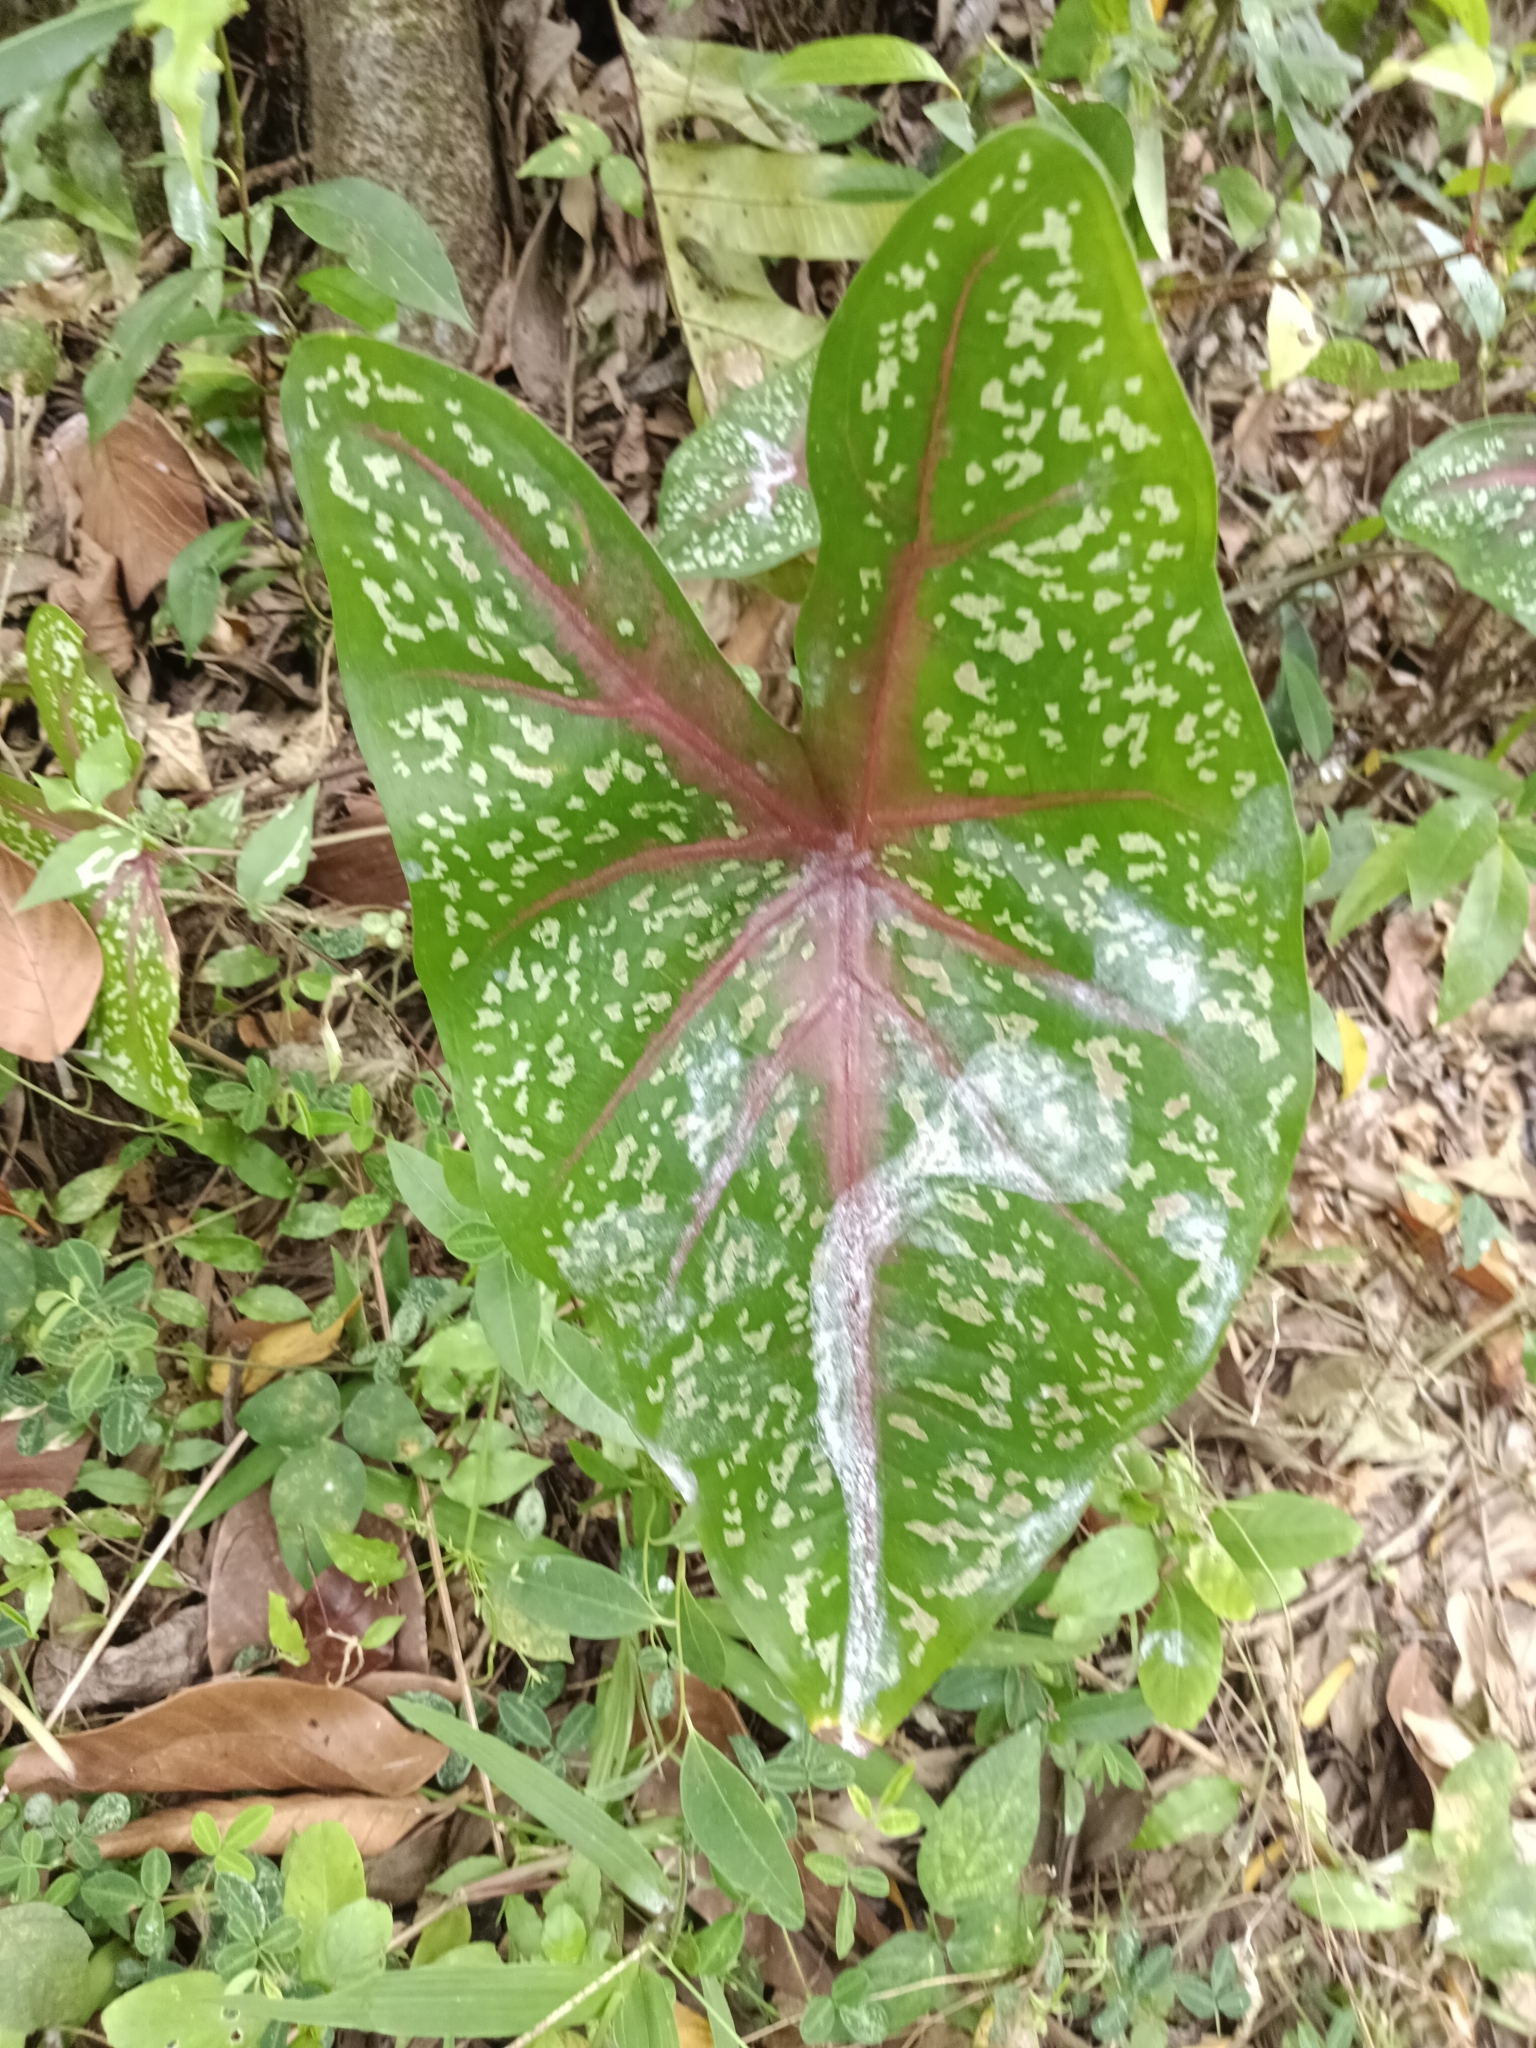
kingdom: Plantae
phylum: Tracheophyta
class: Liliopsida
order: Alismatales
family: Araceae
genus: Caladium
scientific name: Caladium bicolor
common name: Artist's pallet
